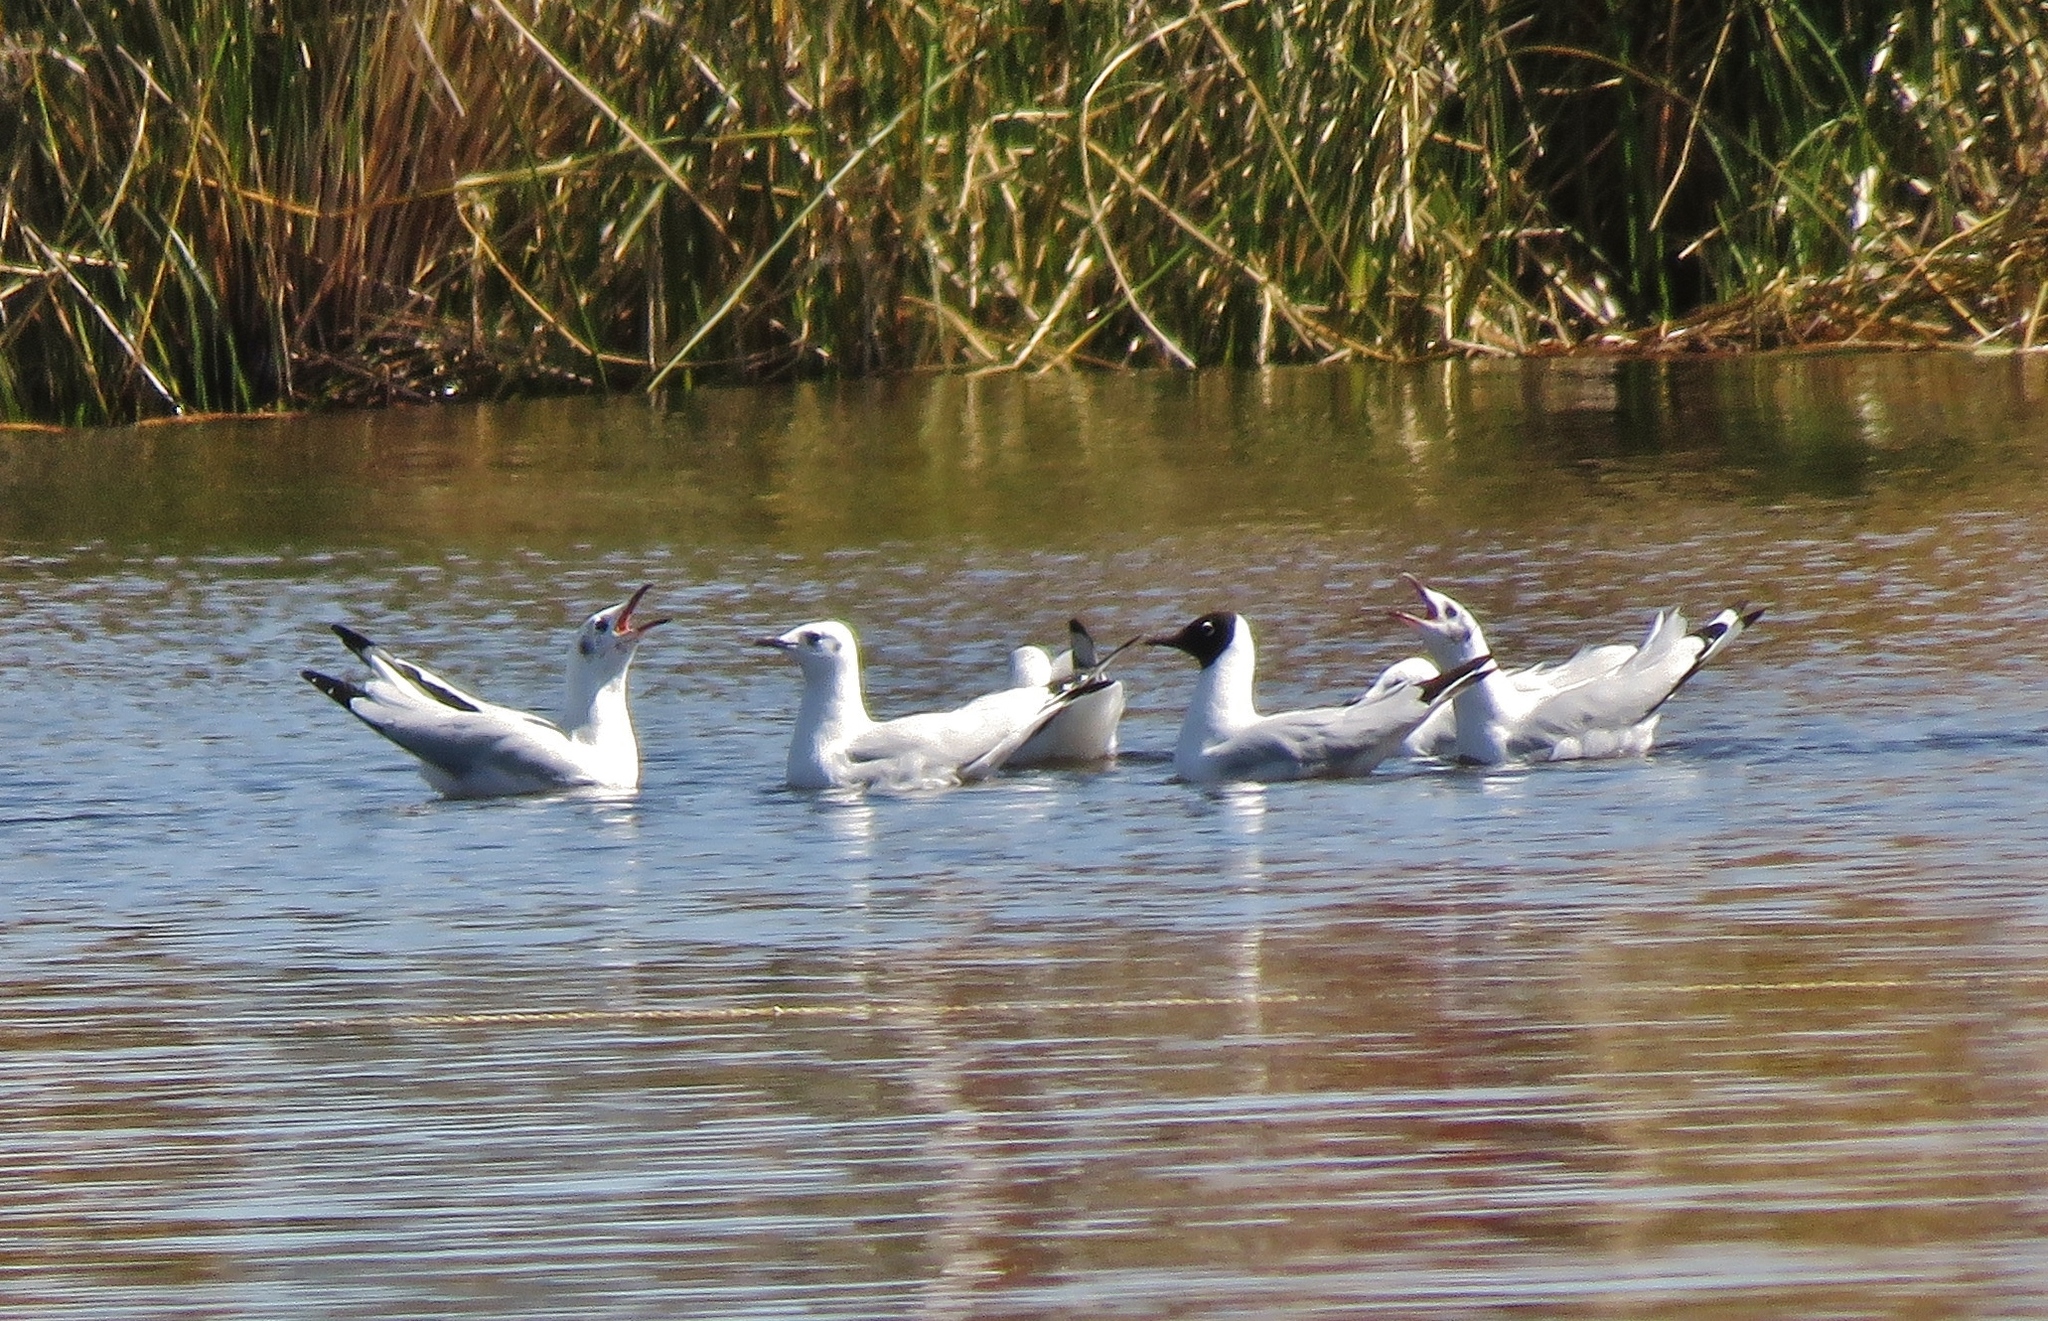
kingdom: Animalia
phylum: Chordata
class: Aves
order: Charadriiformes
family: Laridae
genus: Chroicocephalus
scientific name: Chroicocephalus serranus
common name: Andean gull
